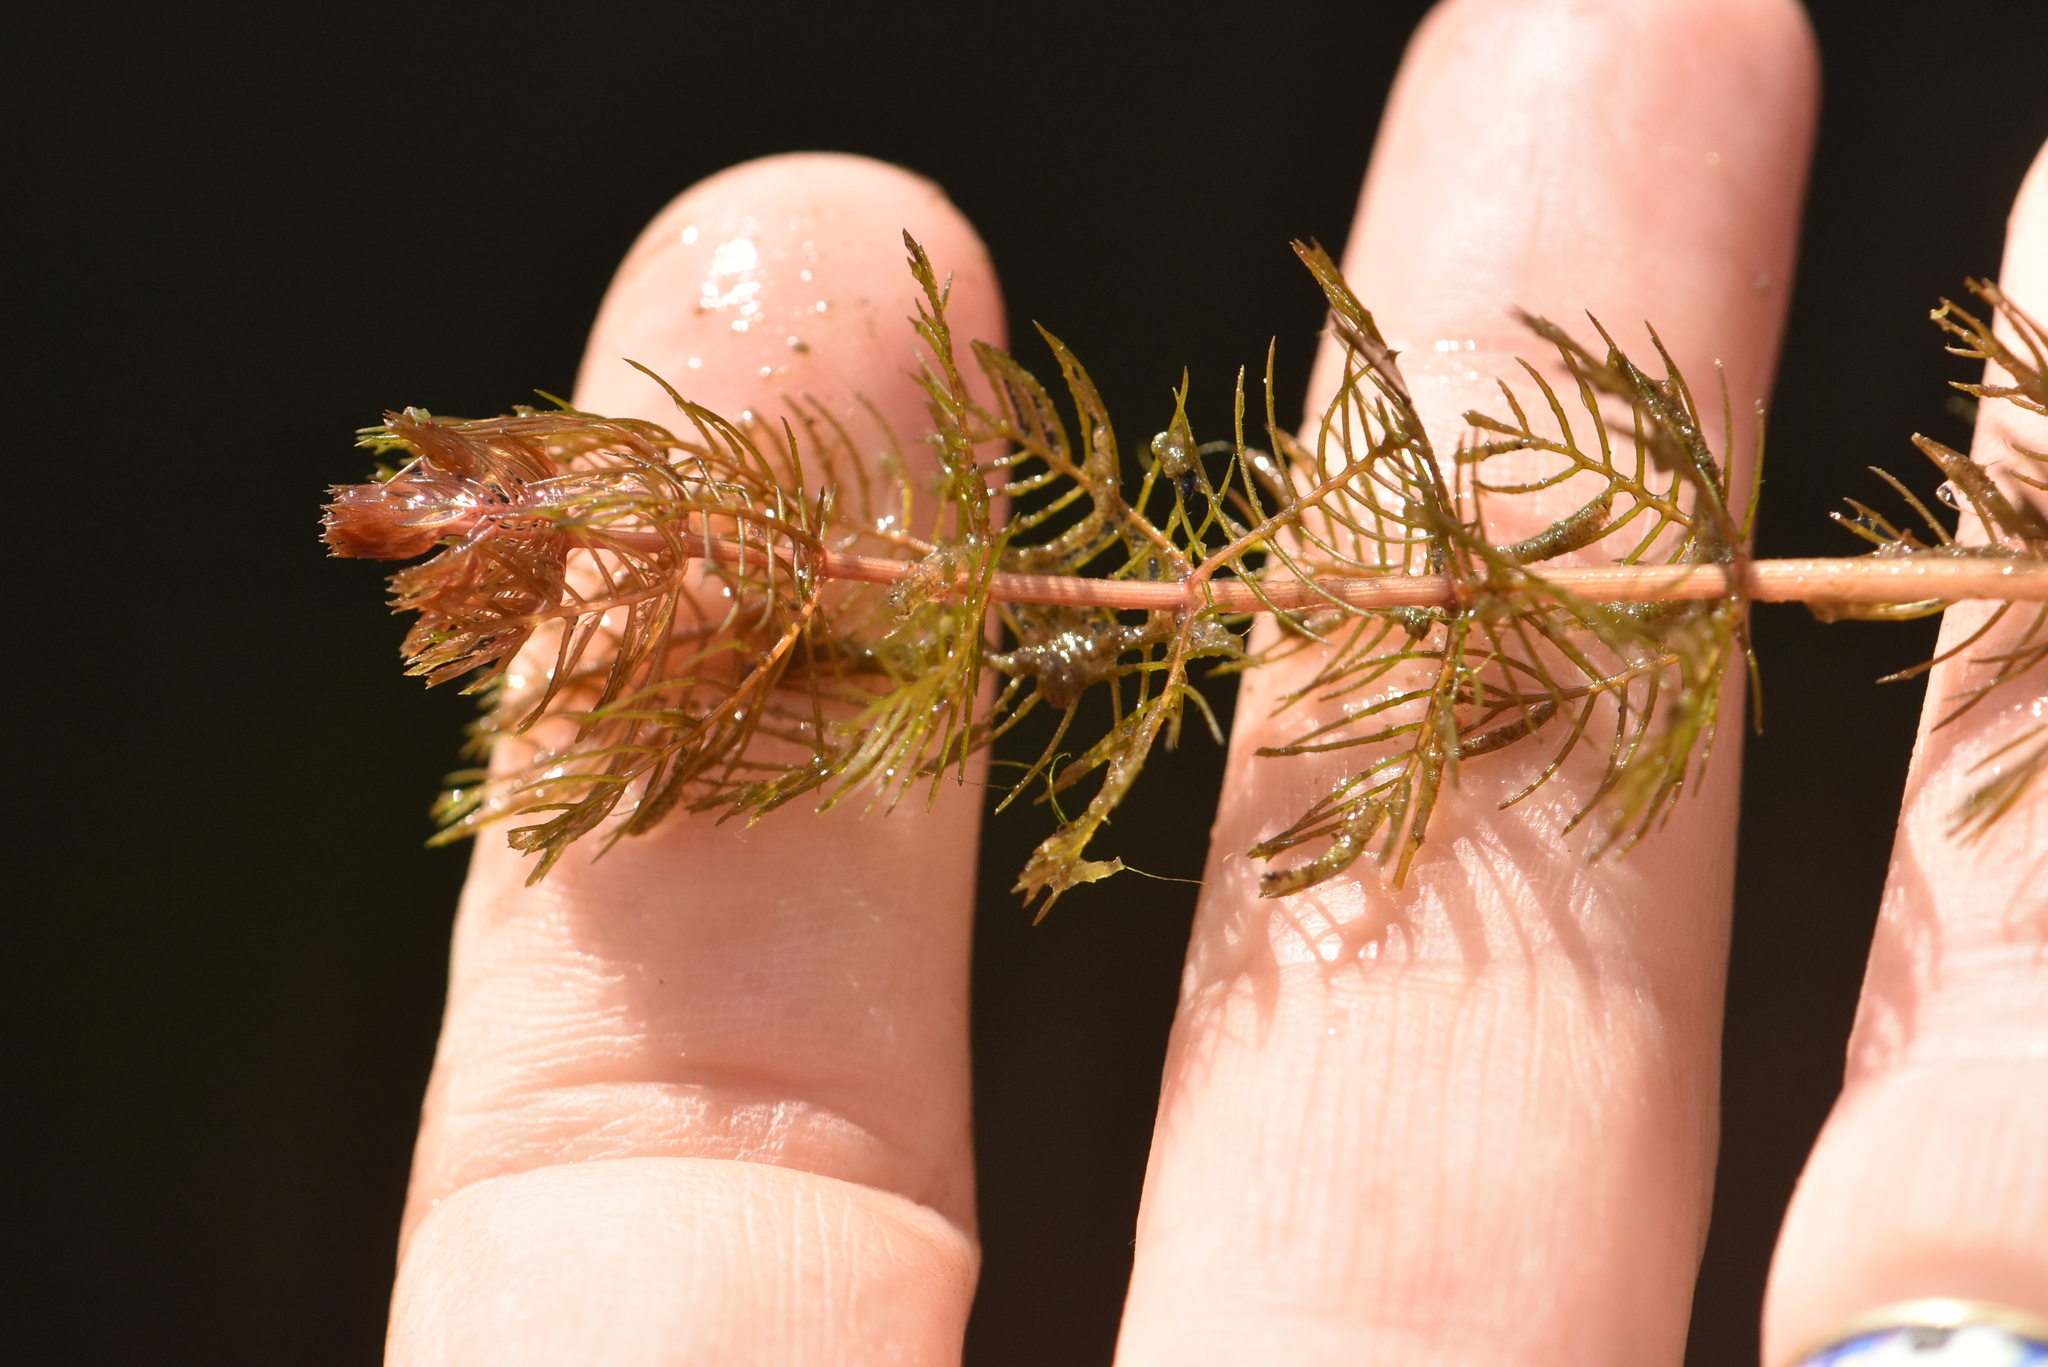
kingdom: Plantae
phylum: Tracheophyta
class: Magnoliopsida
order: Saxifragales
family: Haloragaceae
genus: Myriophyllum
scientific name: Myriophyllum sibiricum
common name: Siberian water-milfoil
